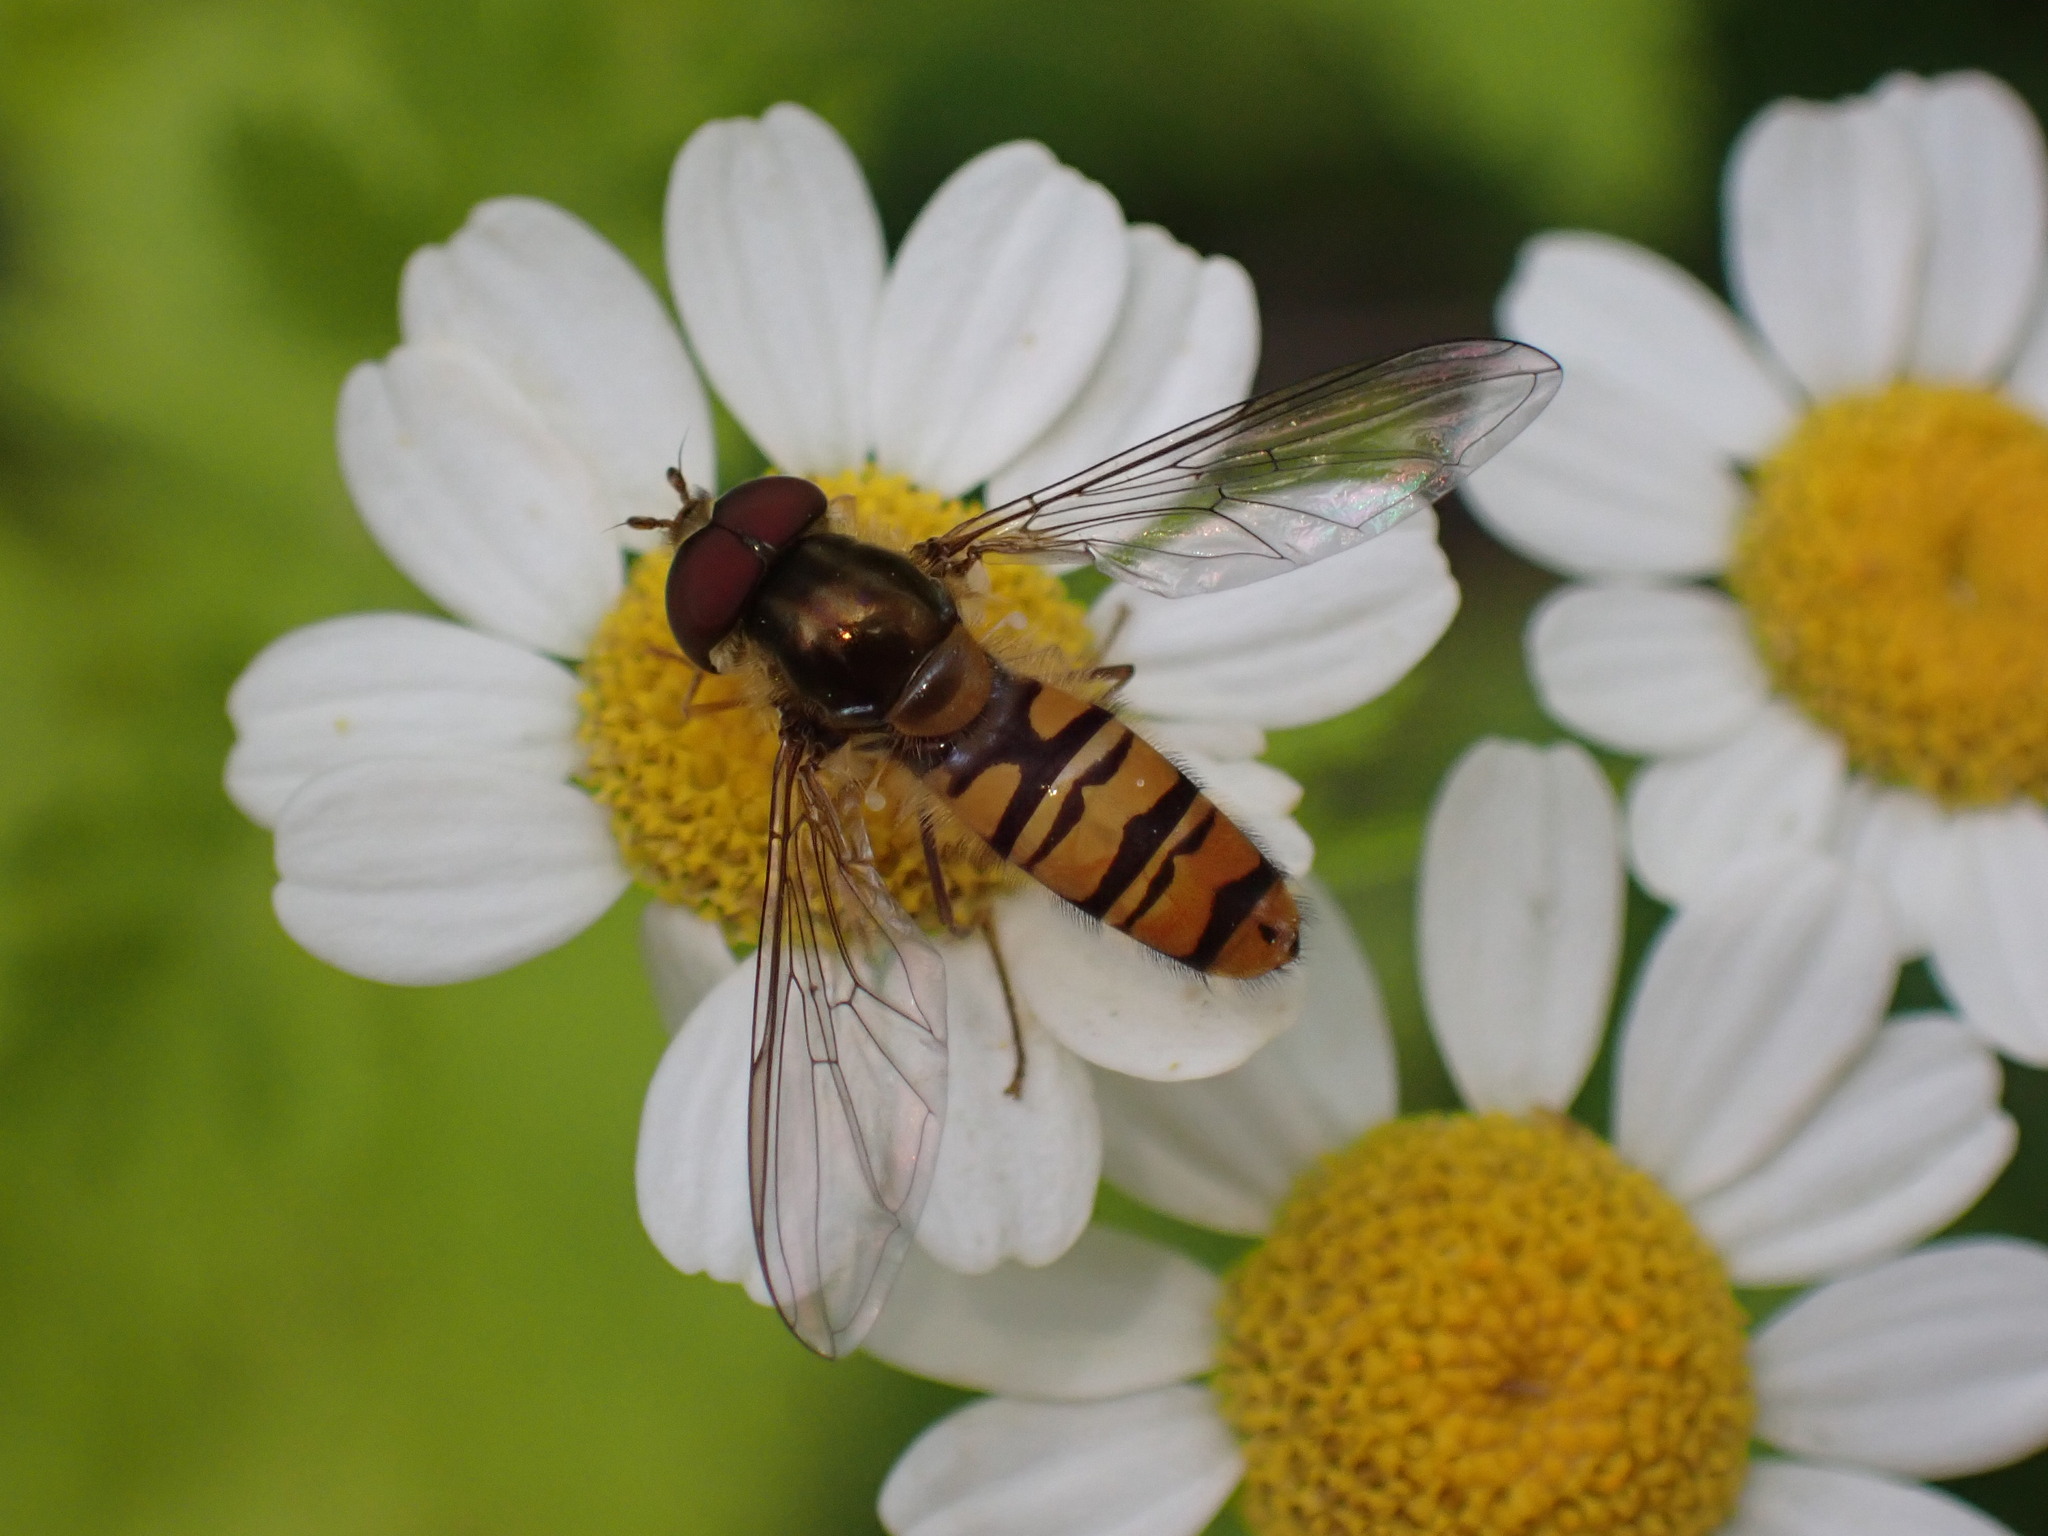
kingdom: Animalia
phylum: Arthropoda
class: Insecta
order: Diptera
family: Syrphidae
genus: Episyrphus
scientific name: Episyrphus balteatus
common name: Marmalade hoverfly
